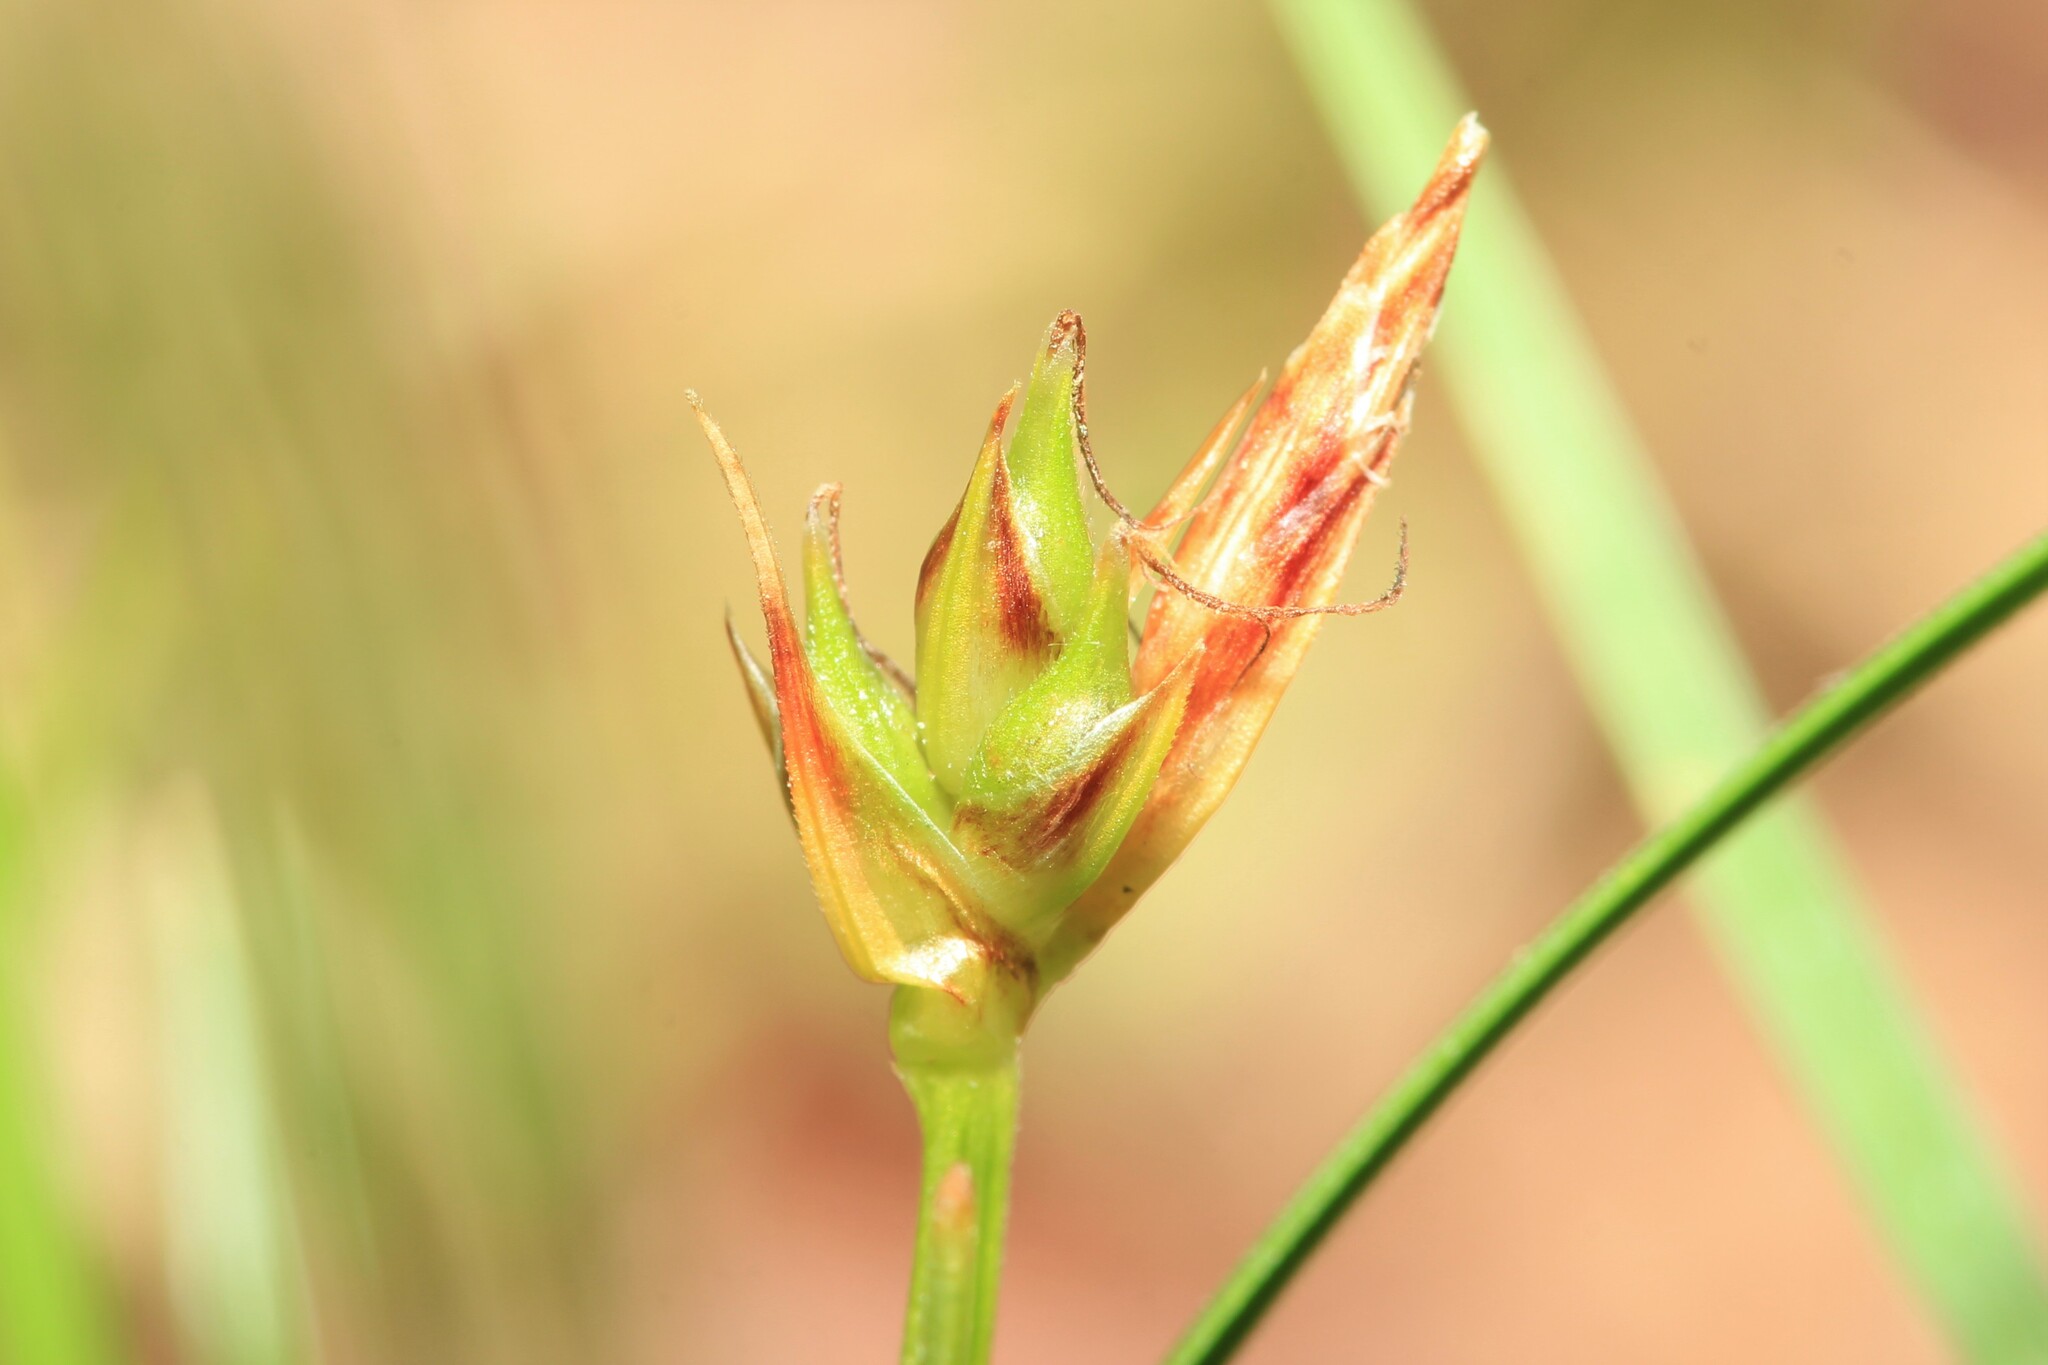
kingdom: Plantae
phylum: Tracheophyta
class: Liliopsida
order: Poales
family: Cyperaceae
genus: Carex
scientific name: Carex tonsa
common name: Bald sedge
